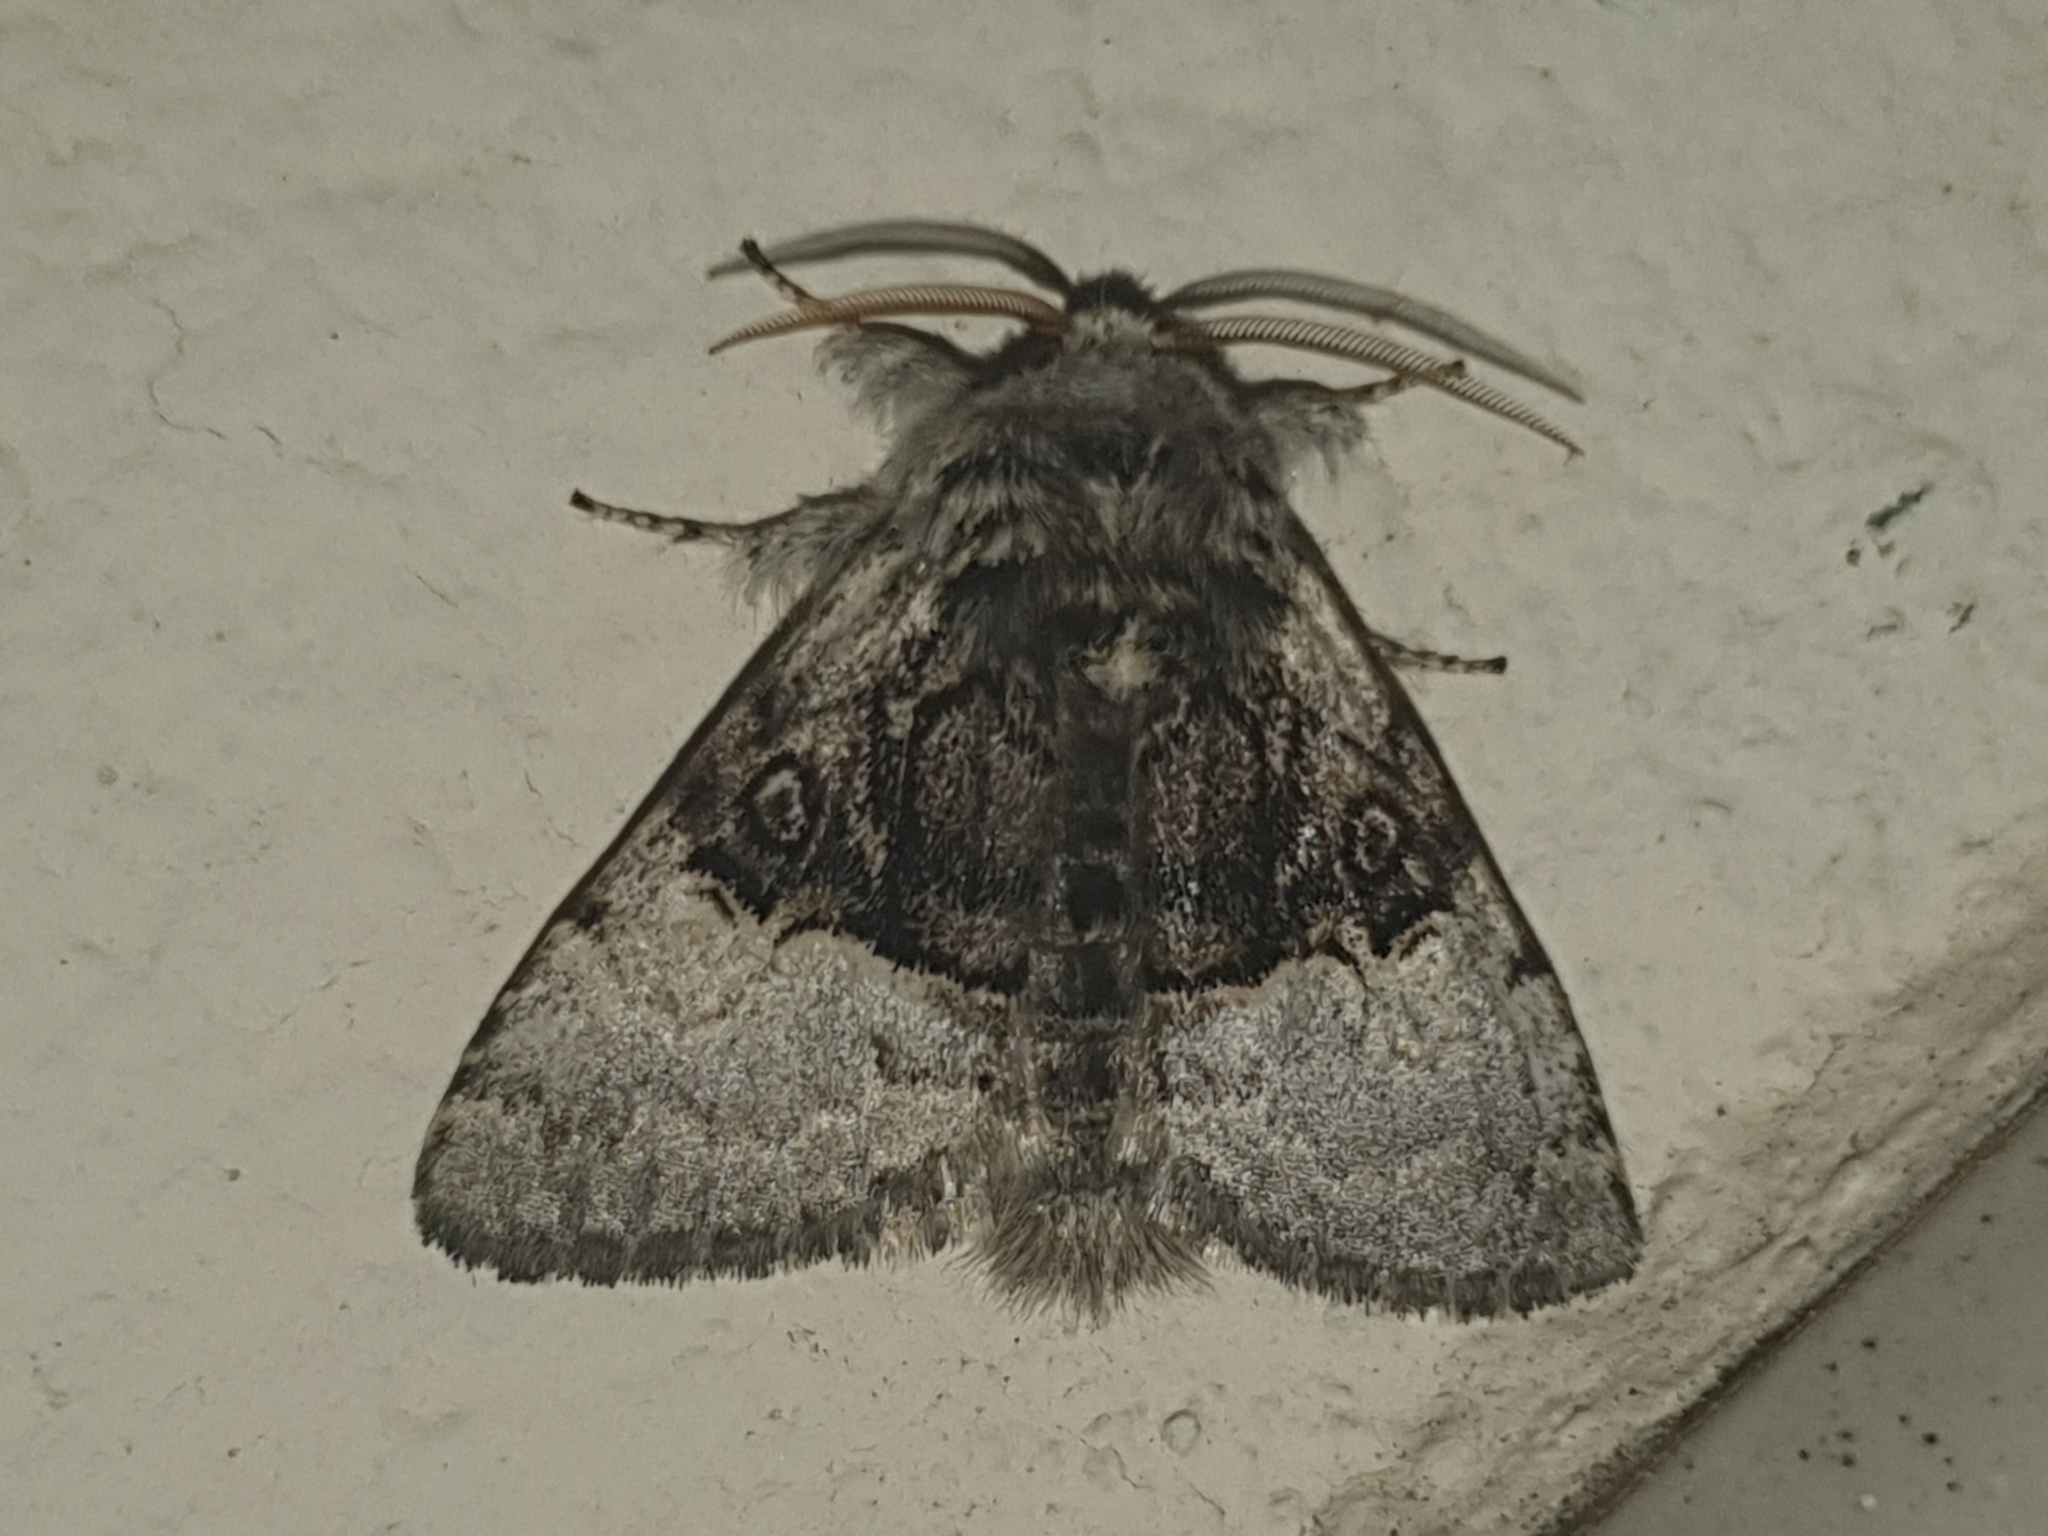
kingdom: Animalia
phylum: Arthropoda
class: Insecta
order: Lepidoptera
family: Noctuidae
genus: Colocasia
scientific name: Colocasia coryli
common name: Nut-tree tussock
